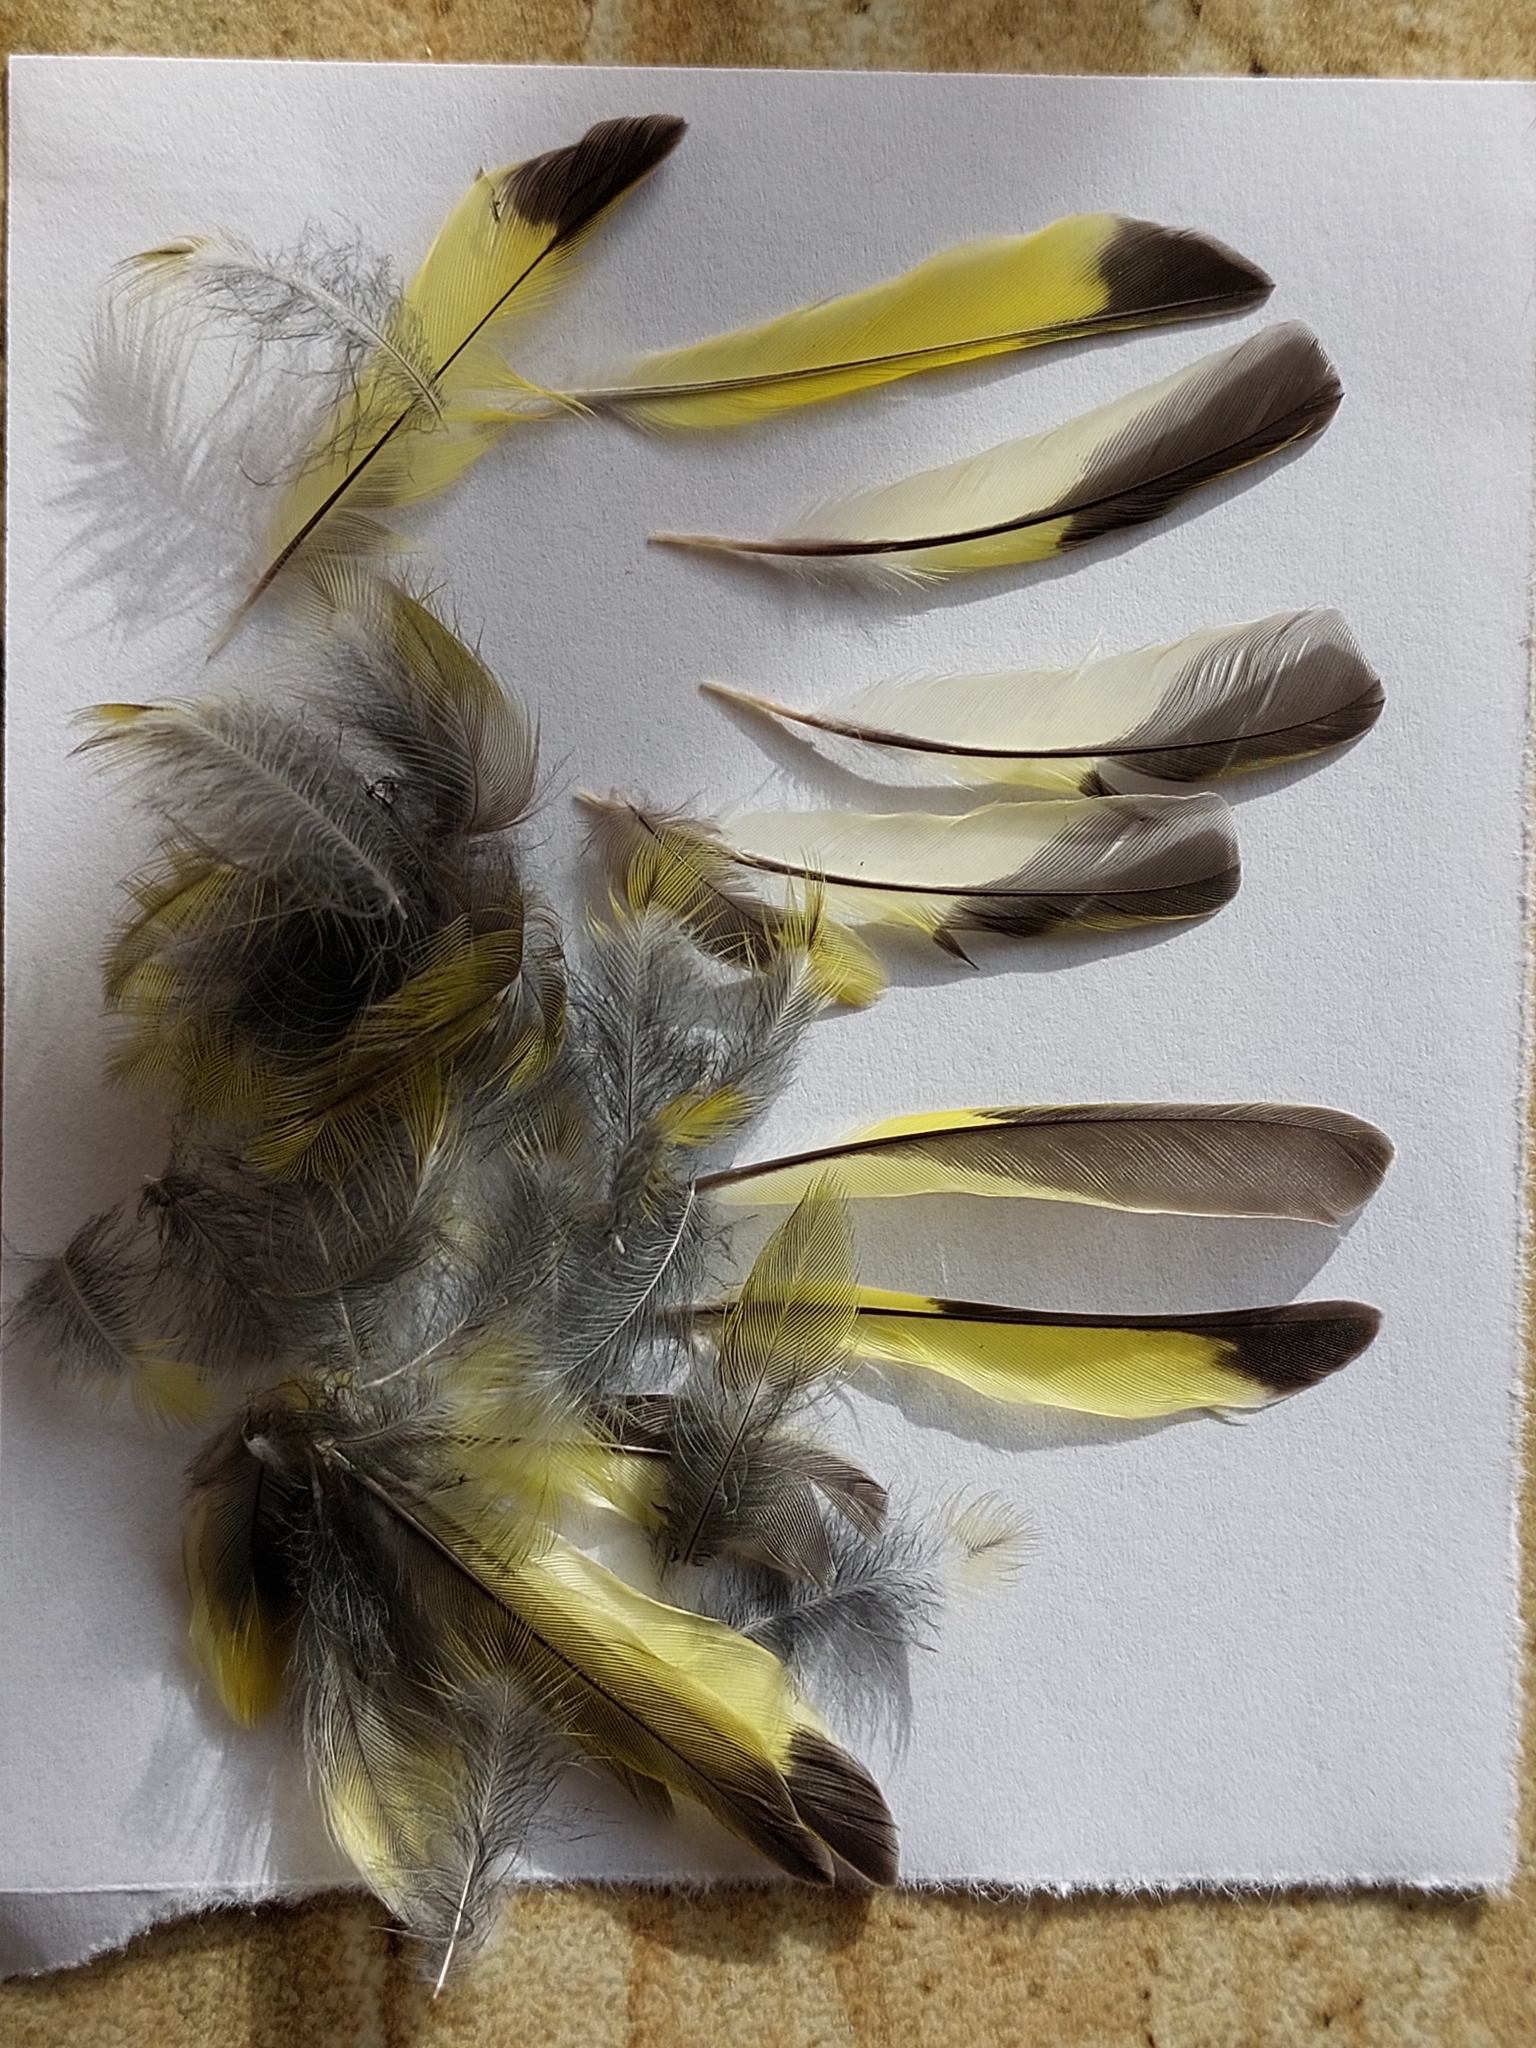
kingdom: Animalia
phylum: Chordata
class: Aves
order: Passeriformes
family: Fringillidae
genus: Spinus
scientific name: Spinus spinus
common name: Eurasian siskin
